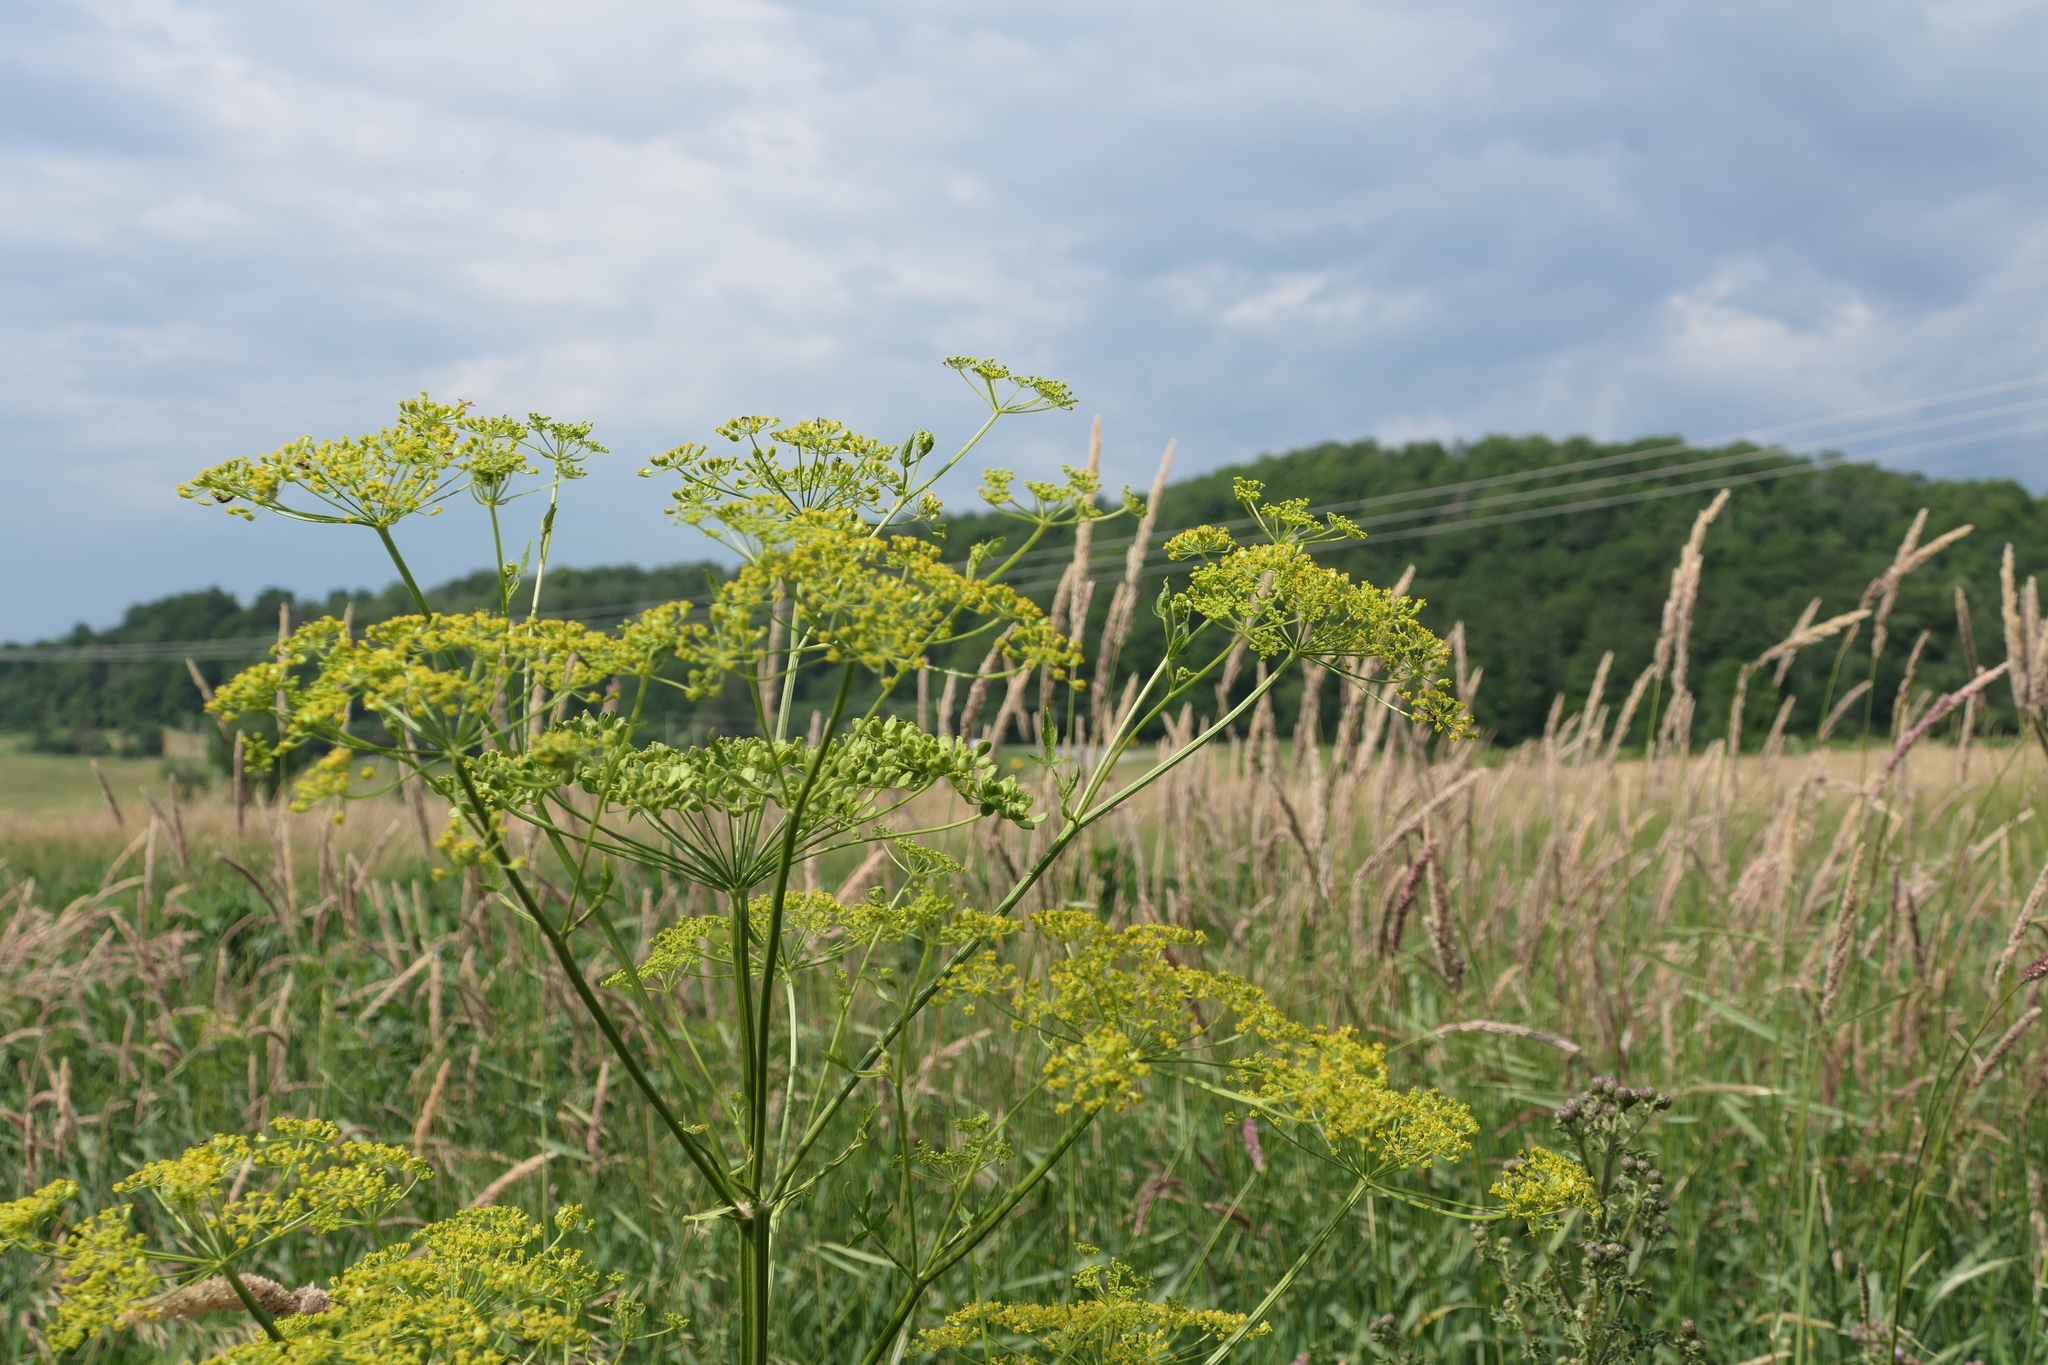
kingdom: Plantae
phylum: Tracheophyta
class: Magnoliopsida
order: Apiales
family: Apiaceae
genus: Pastinaca
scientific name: Pastinaca sativa
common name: Wild parsnip
